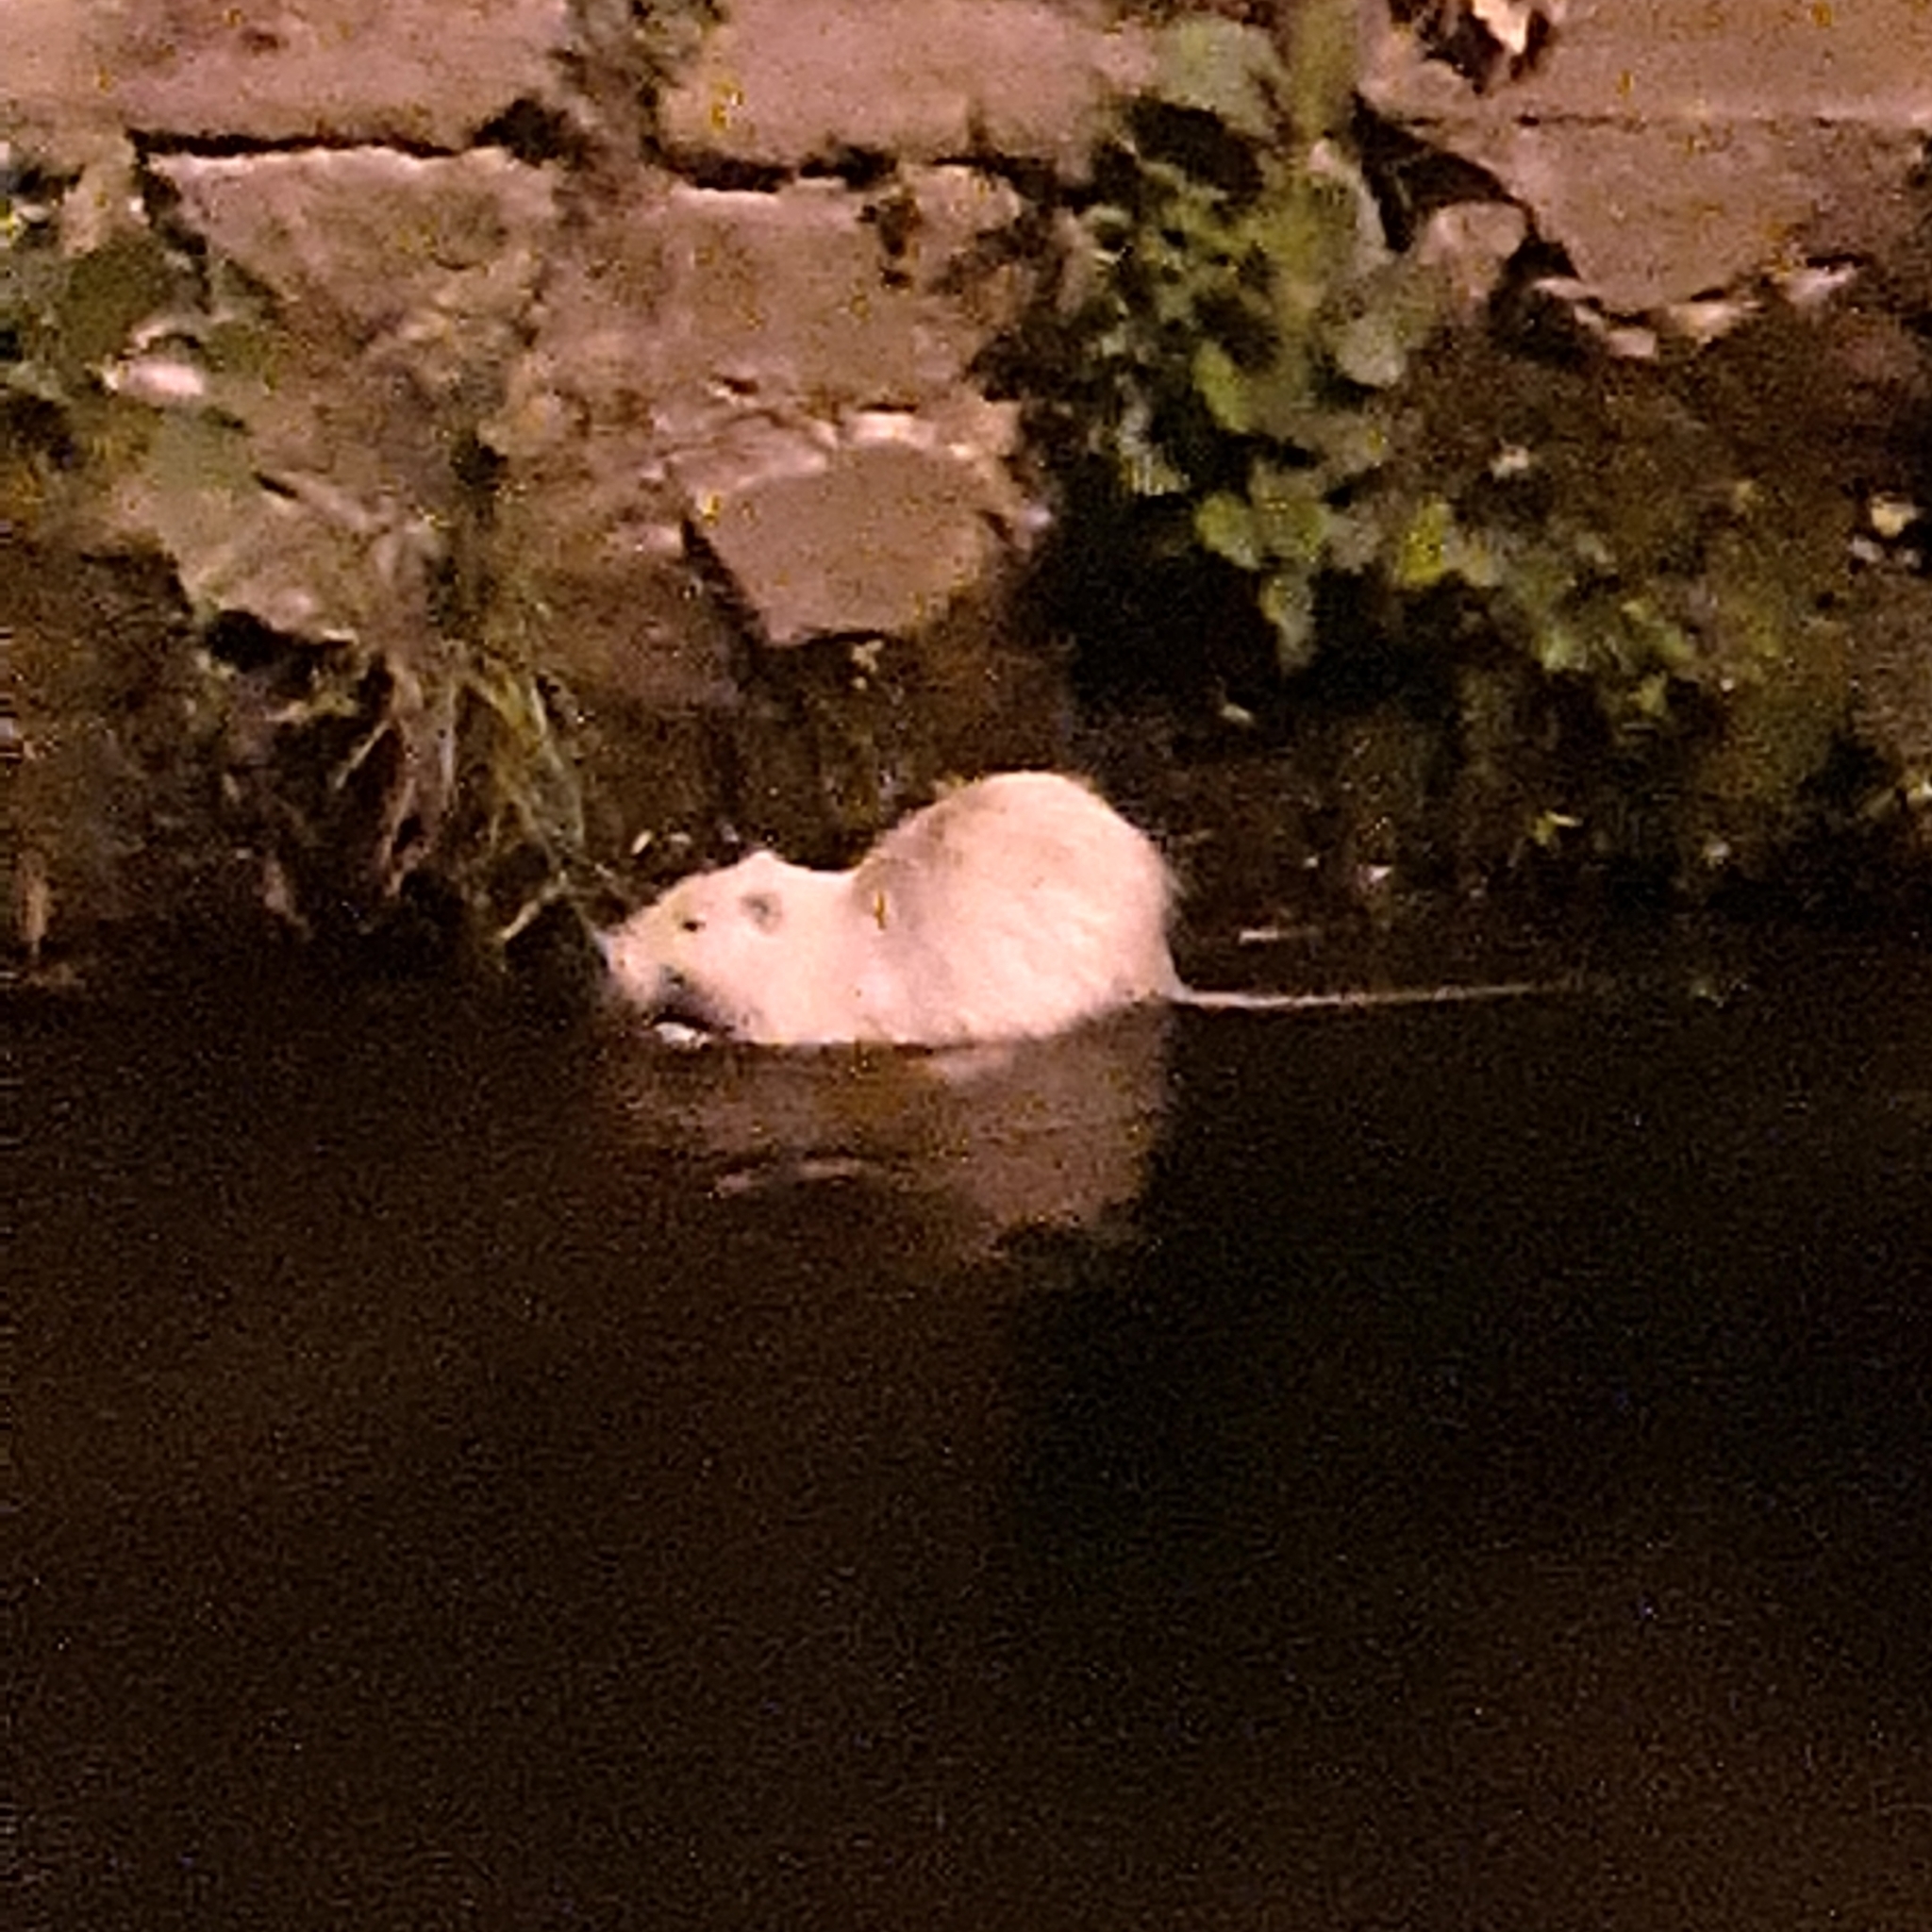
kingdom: Animalia
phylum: Chordata
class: Mammalia
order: Rodentia
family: Myocastoridae
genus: Myocastor
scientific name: Myocastor coypus
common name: Coypu
